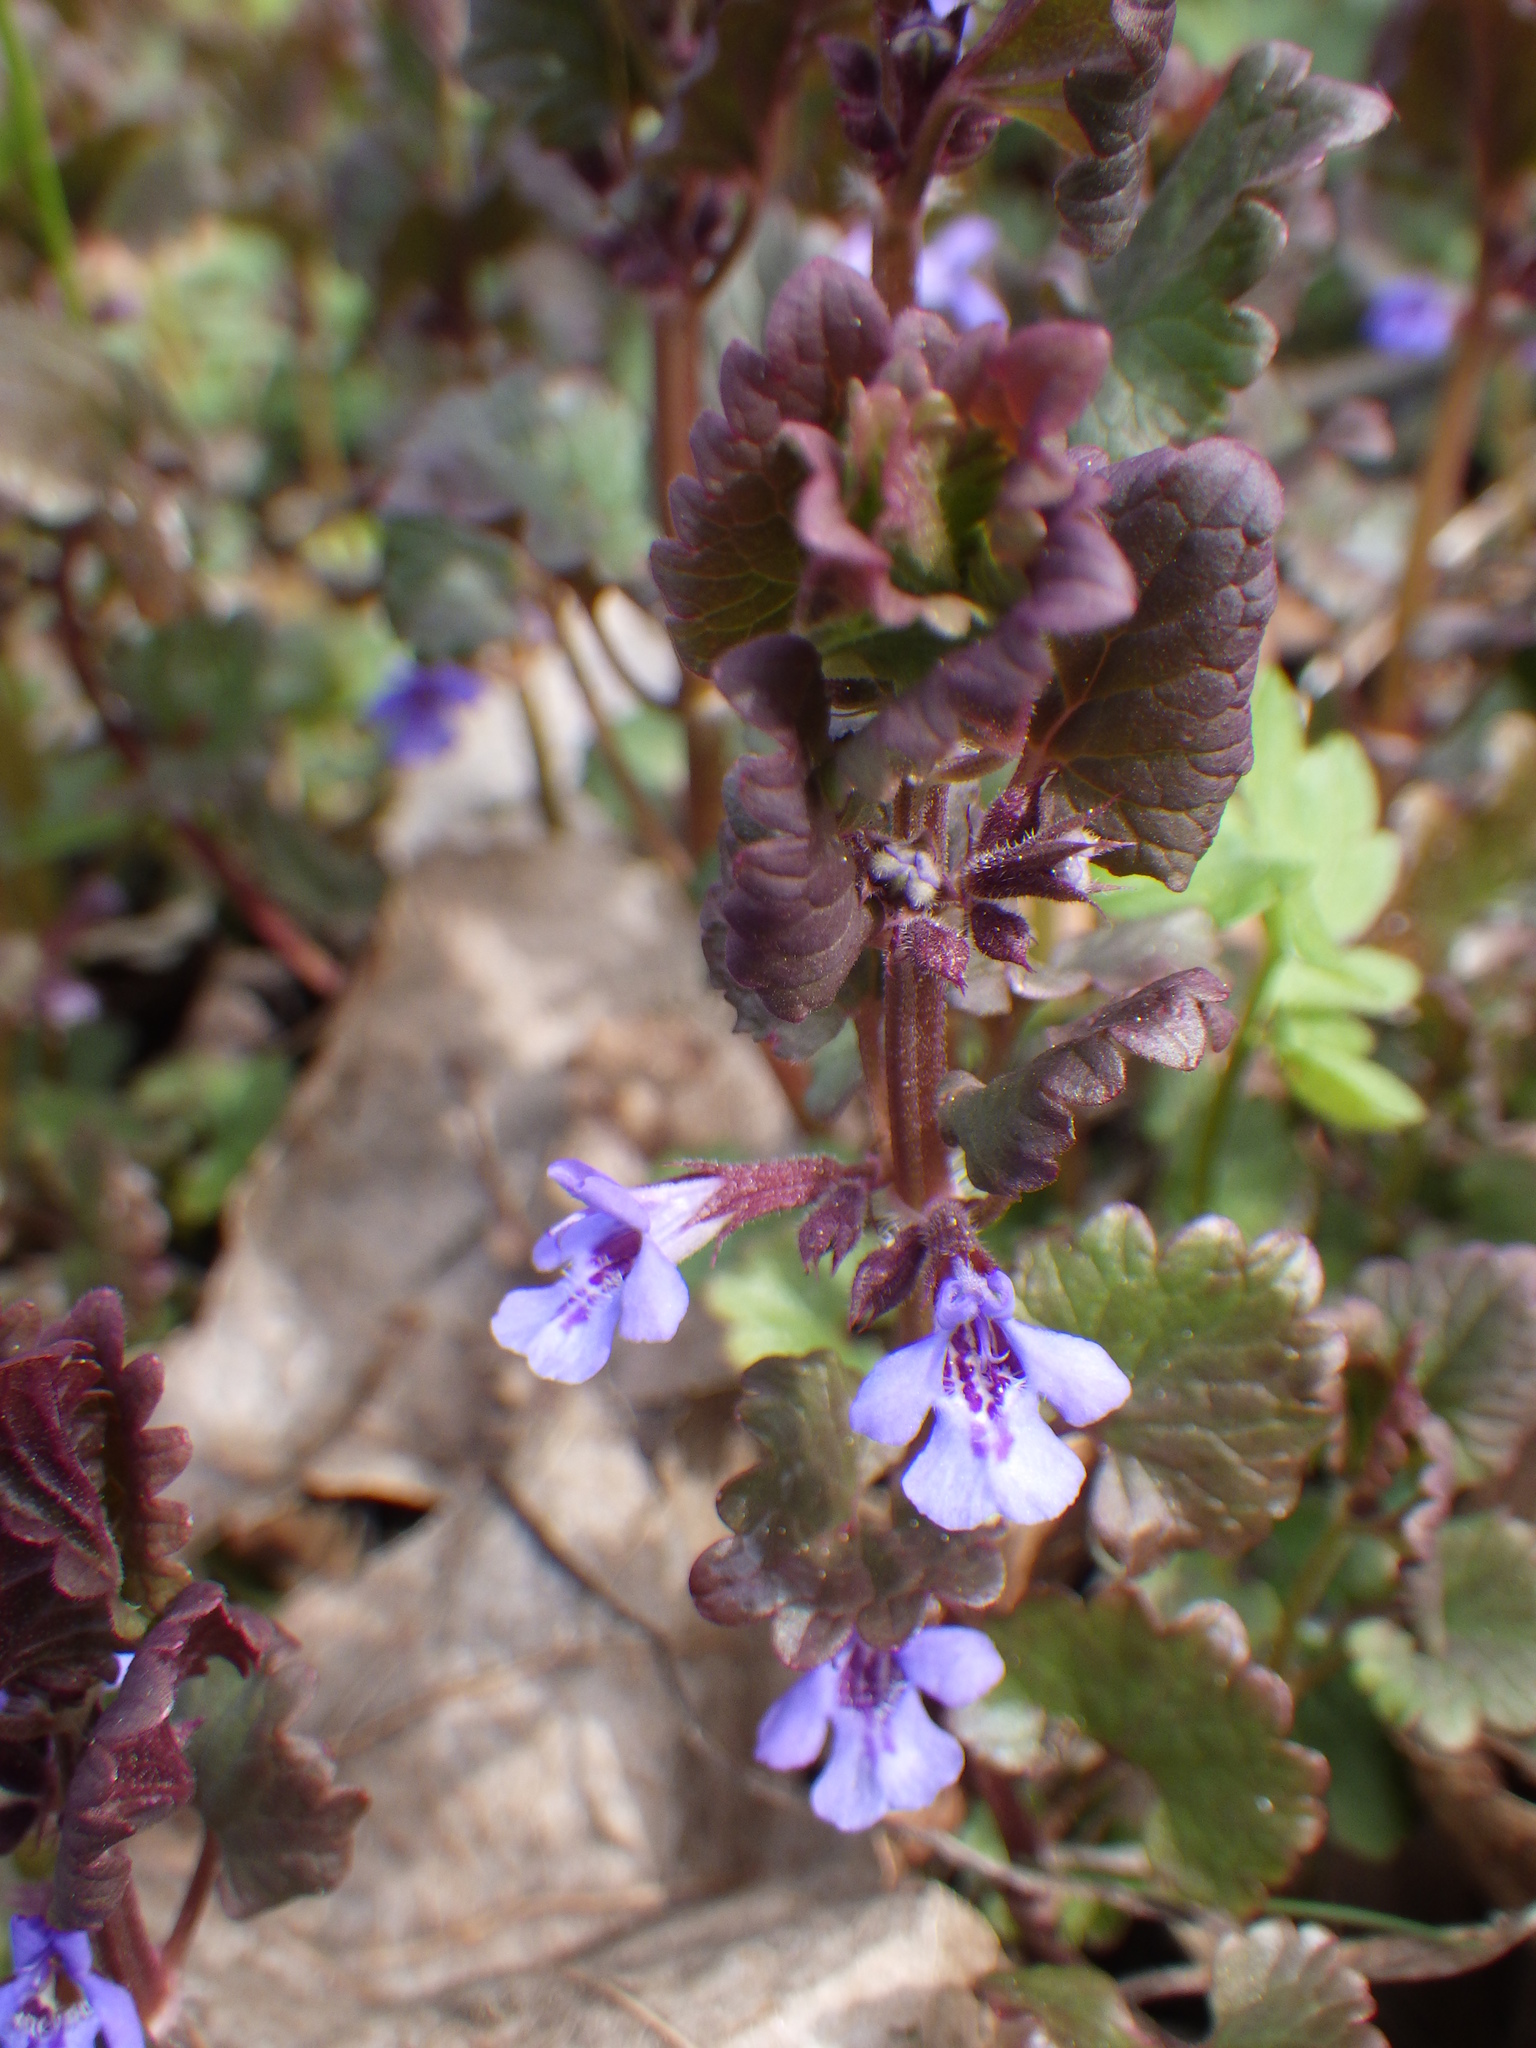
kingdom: Plantae
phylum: Tracheophyta
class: Magnoliopsida
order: Lamiales
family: Lamiaceae
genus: Glechoma
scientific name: Glechoma hederacea
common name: Ground ivy
